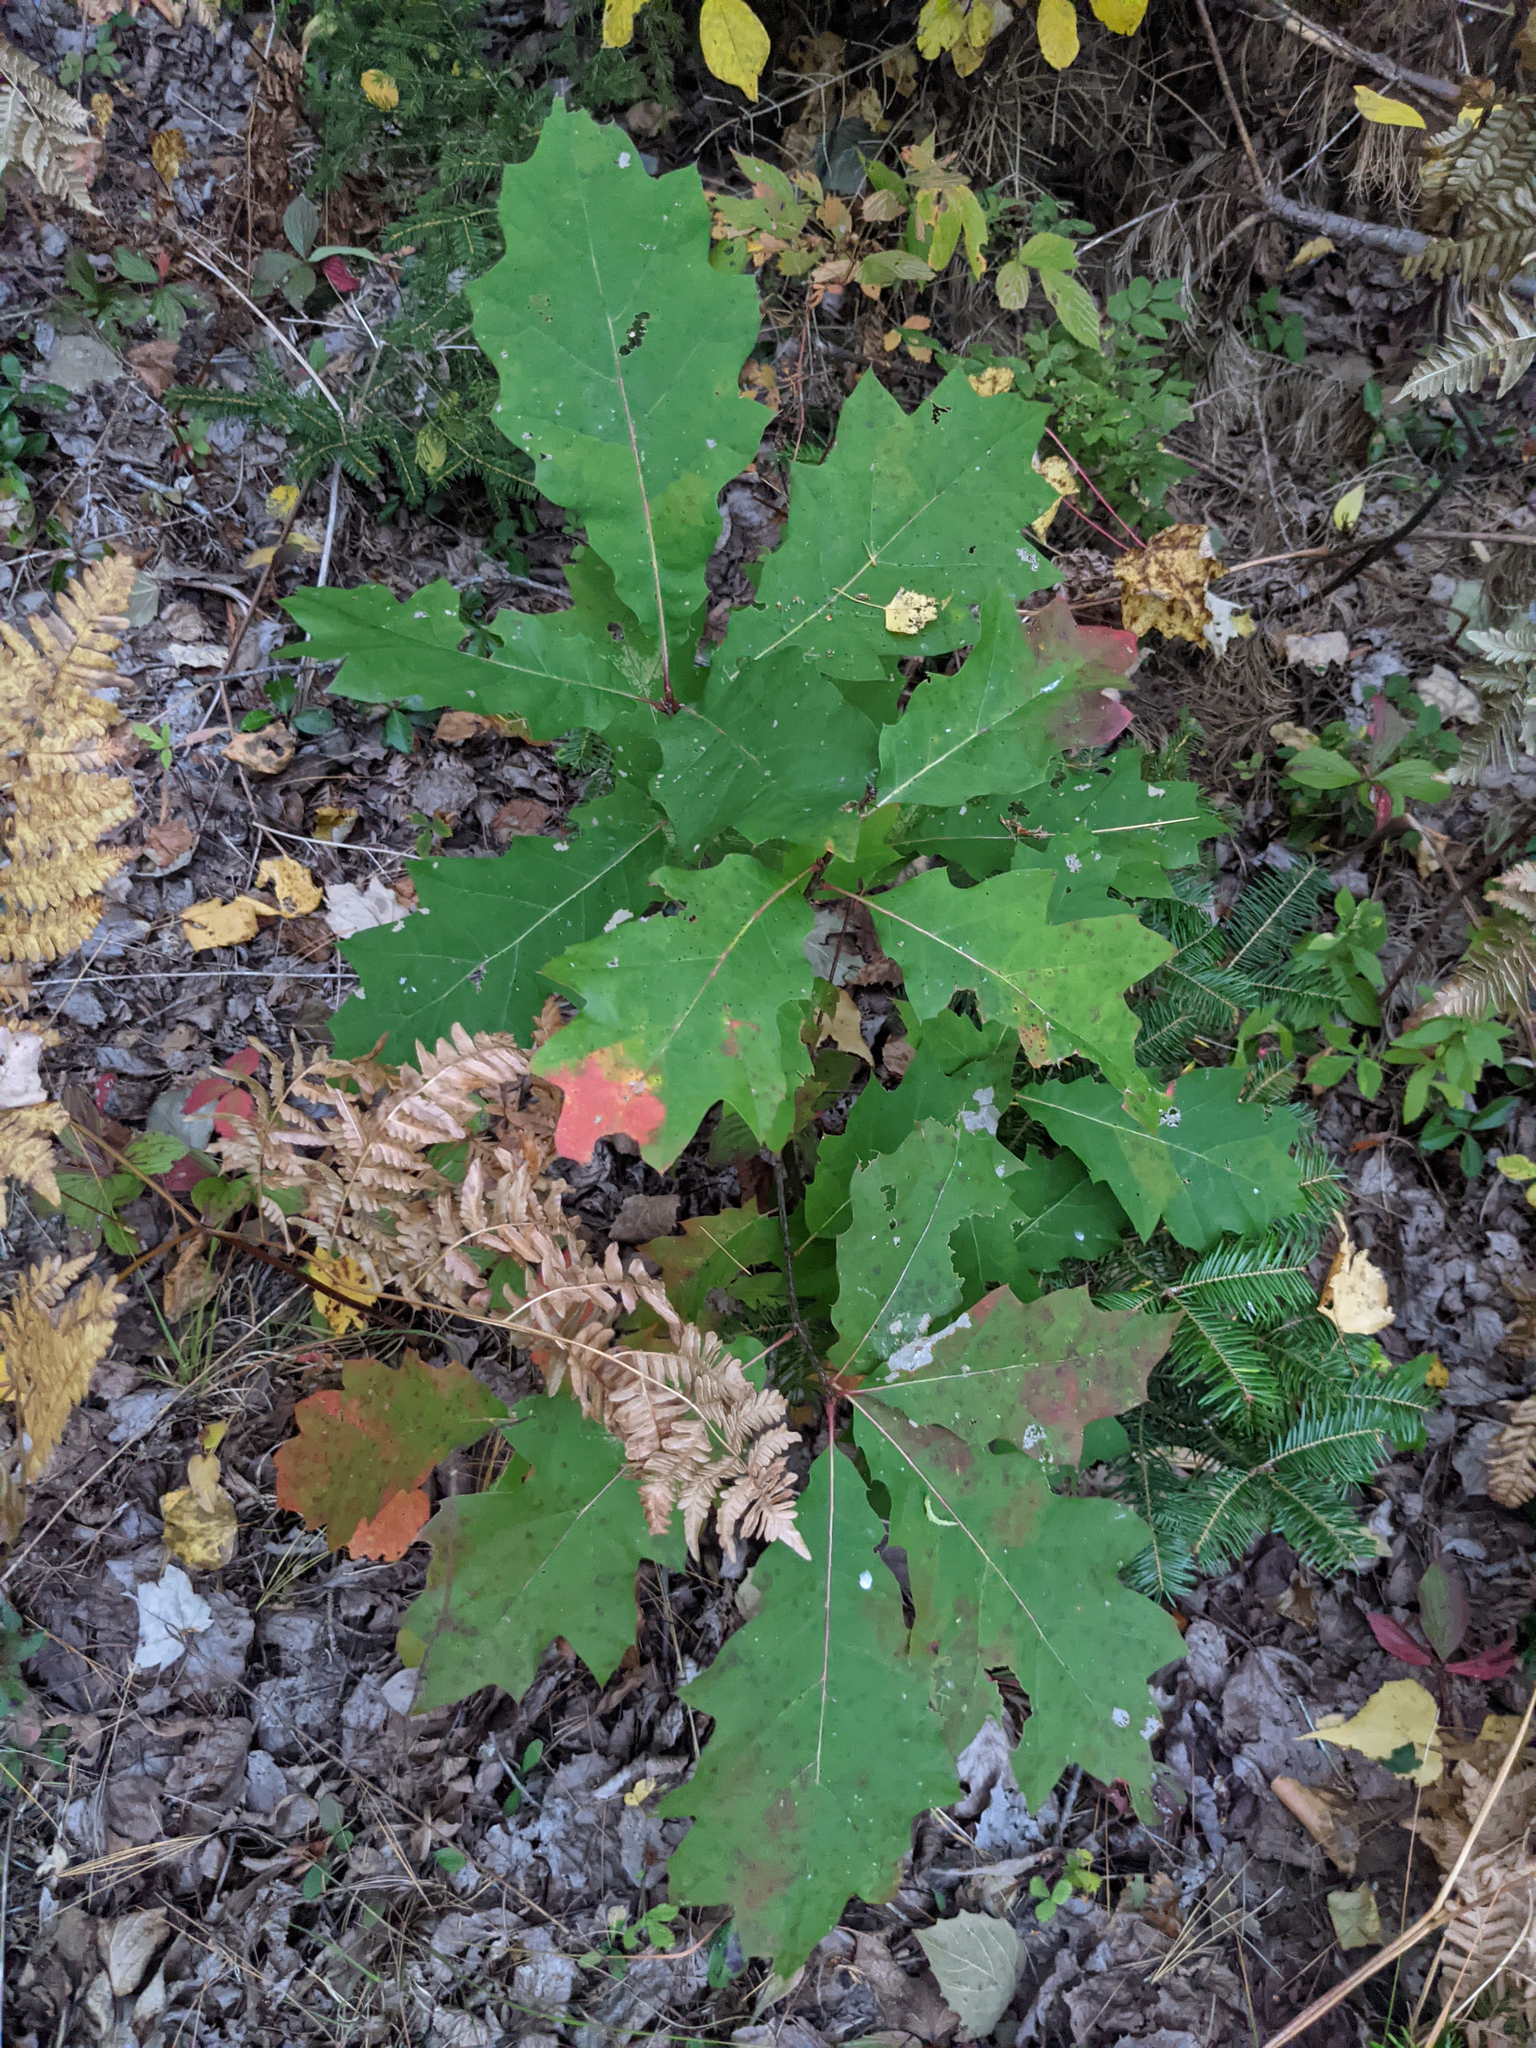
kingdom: Plantae
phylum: Tracheophyta
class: Magnoliopsida
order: Fagales
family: Fagaceae
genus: Quercus
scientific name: Quercus rubra
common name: Red oak
